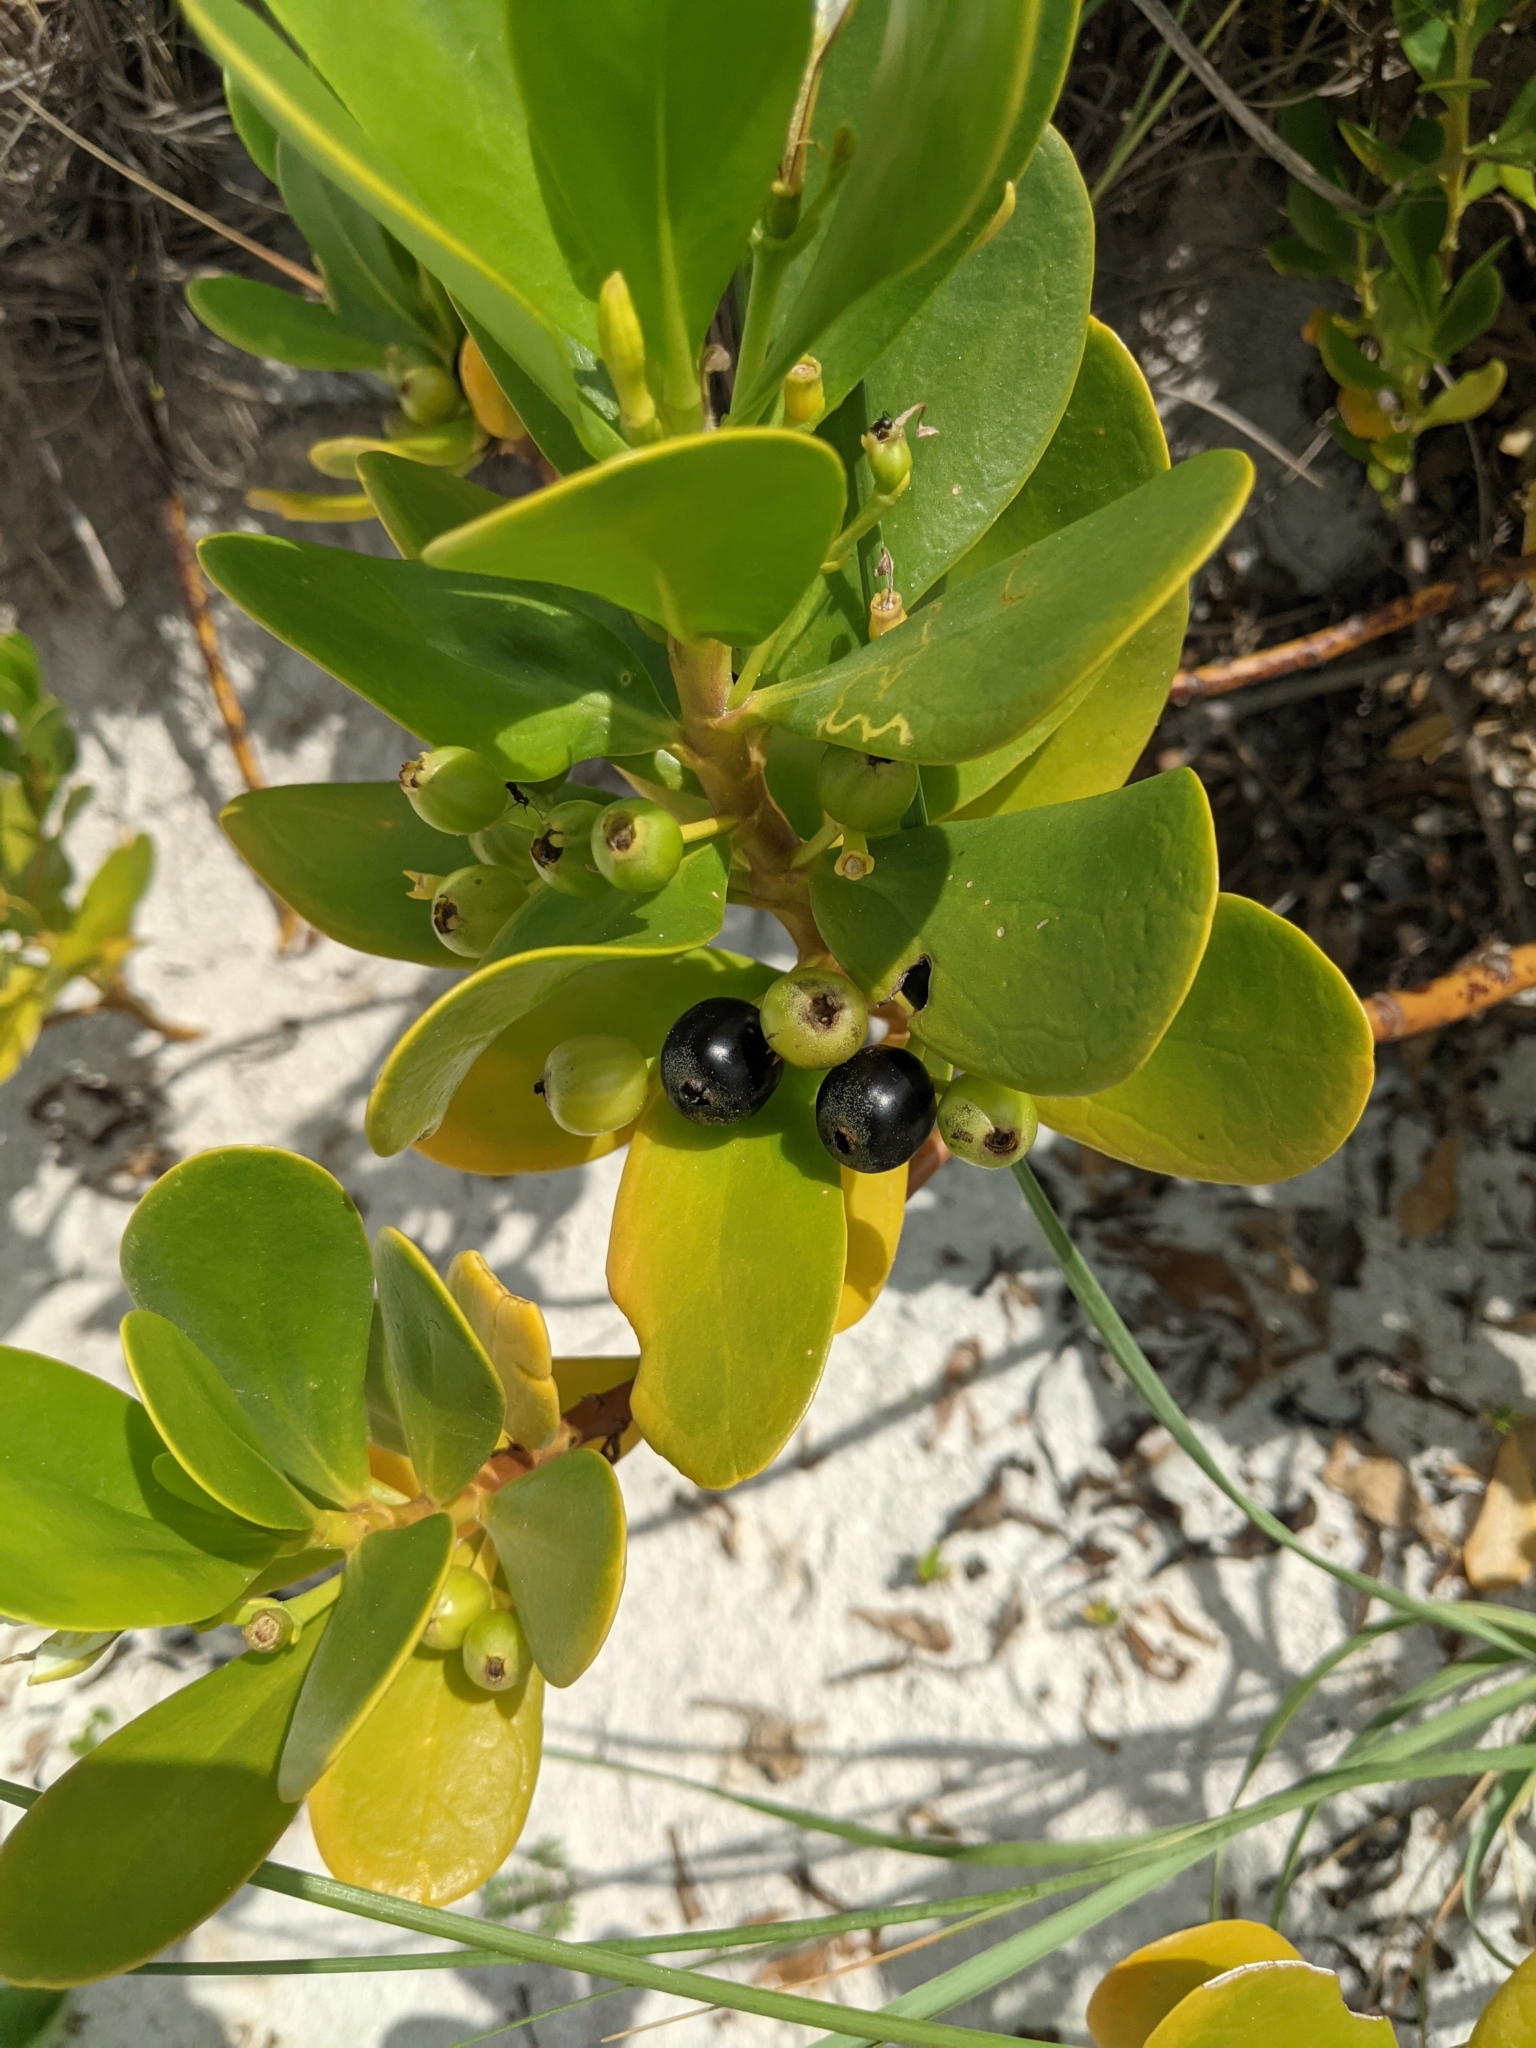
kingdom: Plantae
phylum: Tracheophyta
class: Magnoliopsida
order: Asterales
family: Goodeniaceae
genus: Scaevola
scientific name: Scaevola plumieri
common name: Gull feed
